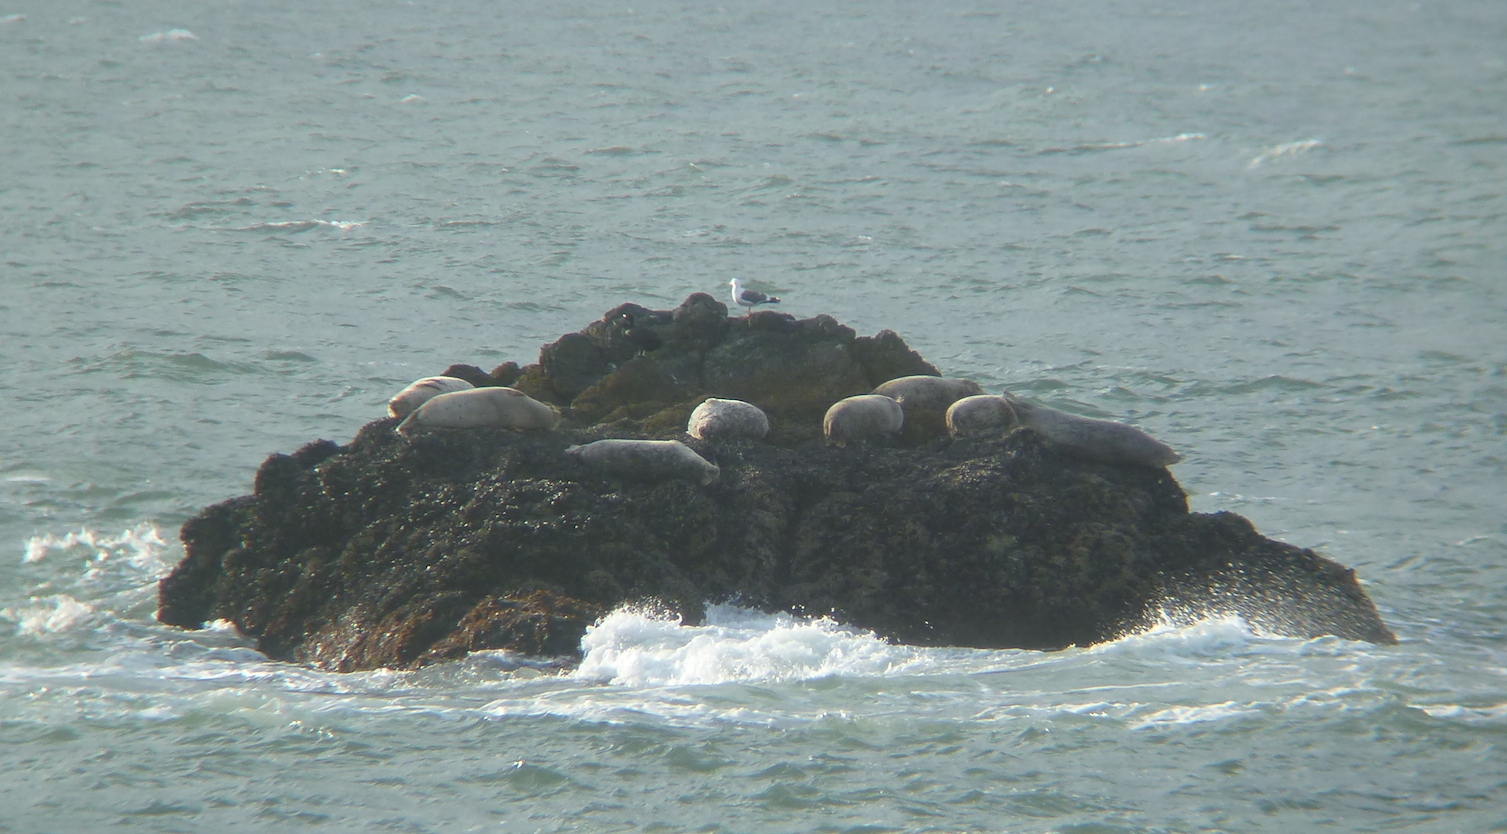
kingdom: Animalia
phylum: Chordata
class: Mammalia
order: Carnivora
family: Phocidae
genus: Phoca
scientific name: Phoca vitulina
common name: Harbor seal
